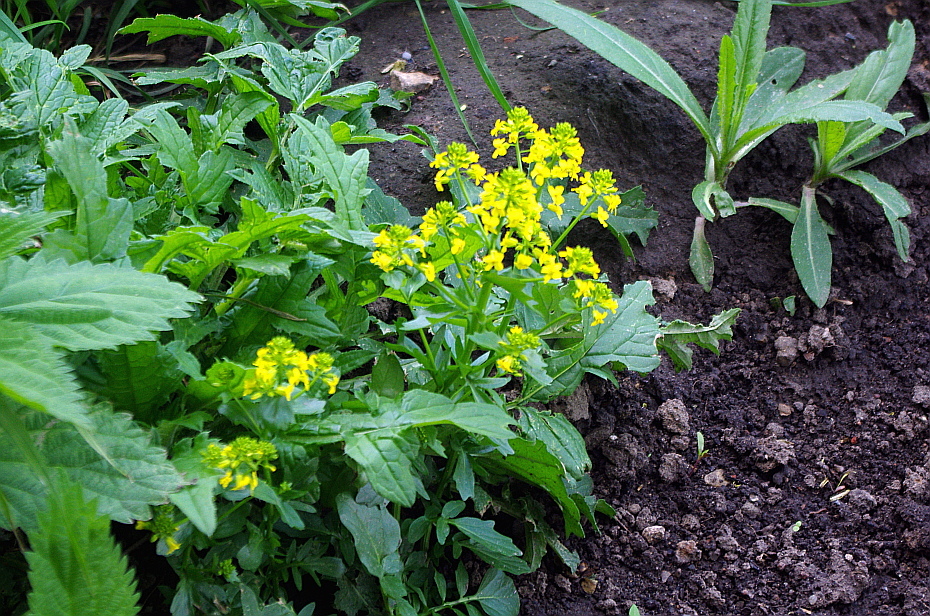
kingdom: Plantae
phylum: Tracheophyta
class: Magnoliopsida
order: Brassicales
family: Brassicaceae
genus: Barbarea
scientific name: Barbarea vulgaris
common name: Cressy-greens
